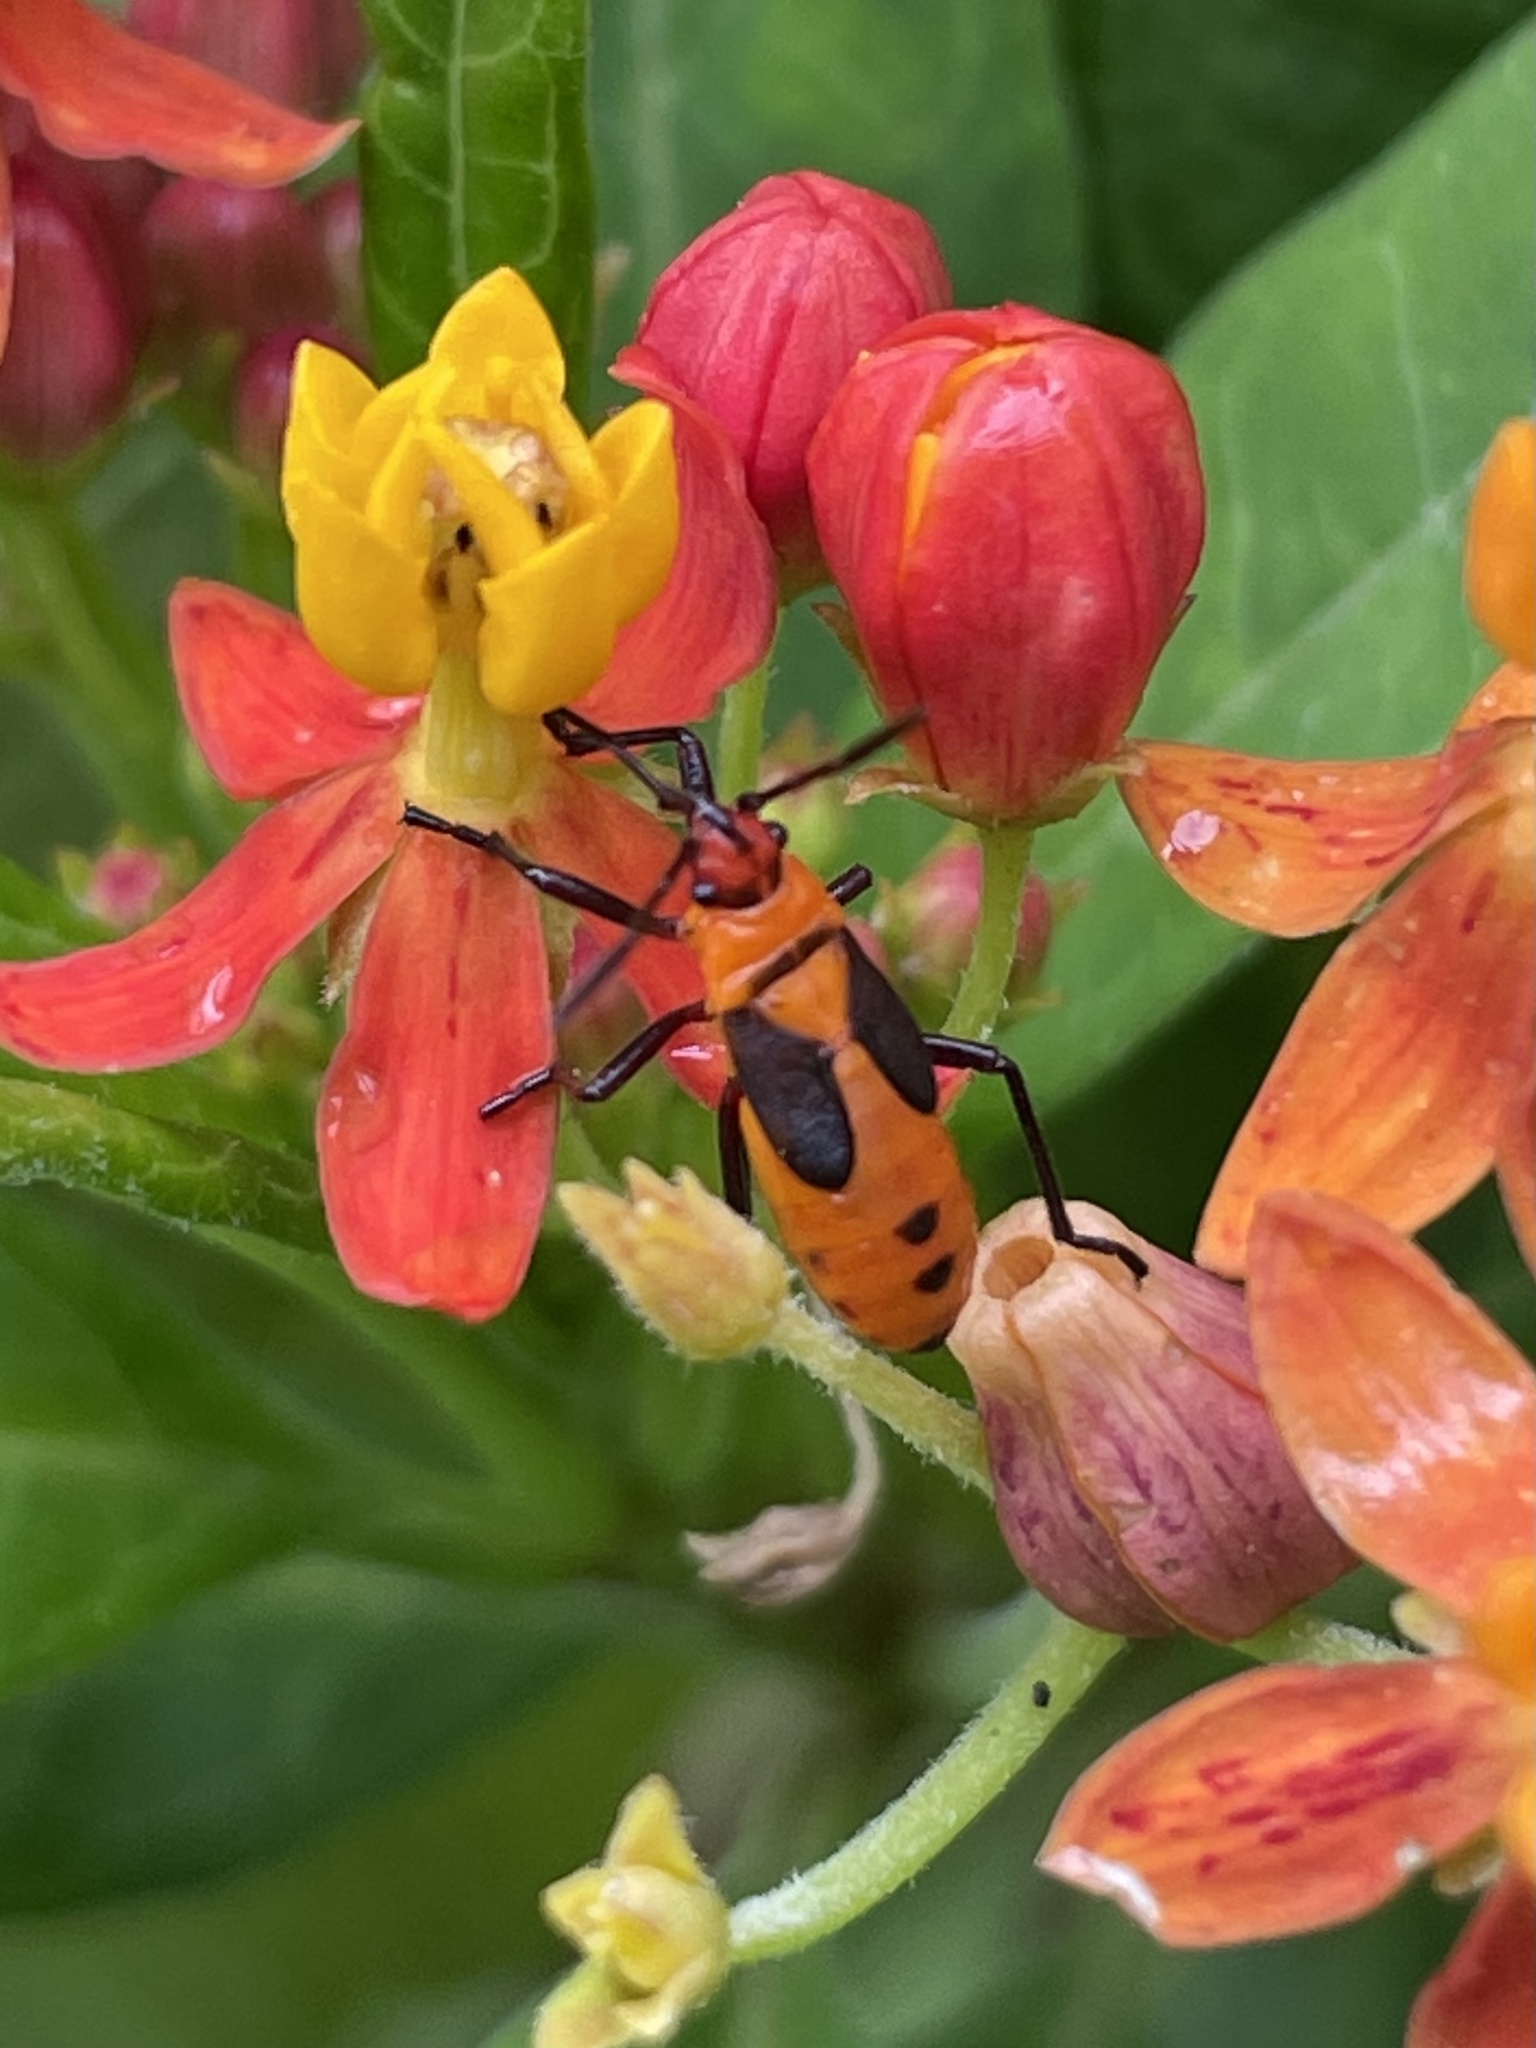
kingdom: Animalia
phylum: Arthropoda
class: Insecta
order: Hemiptera
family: Lygaeidae
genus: Oncopeltus
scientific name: Oncopeltus fasciatus
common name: Large milkweed bug
